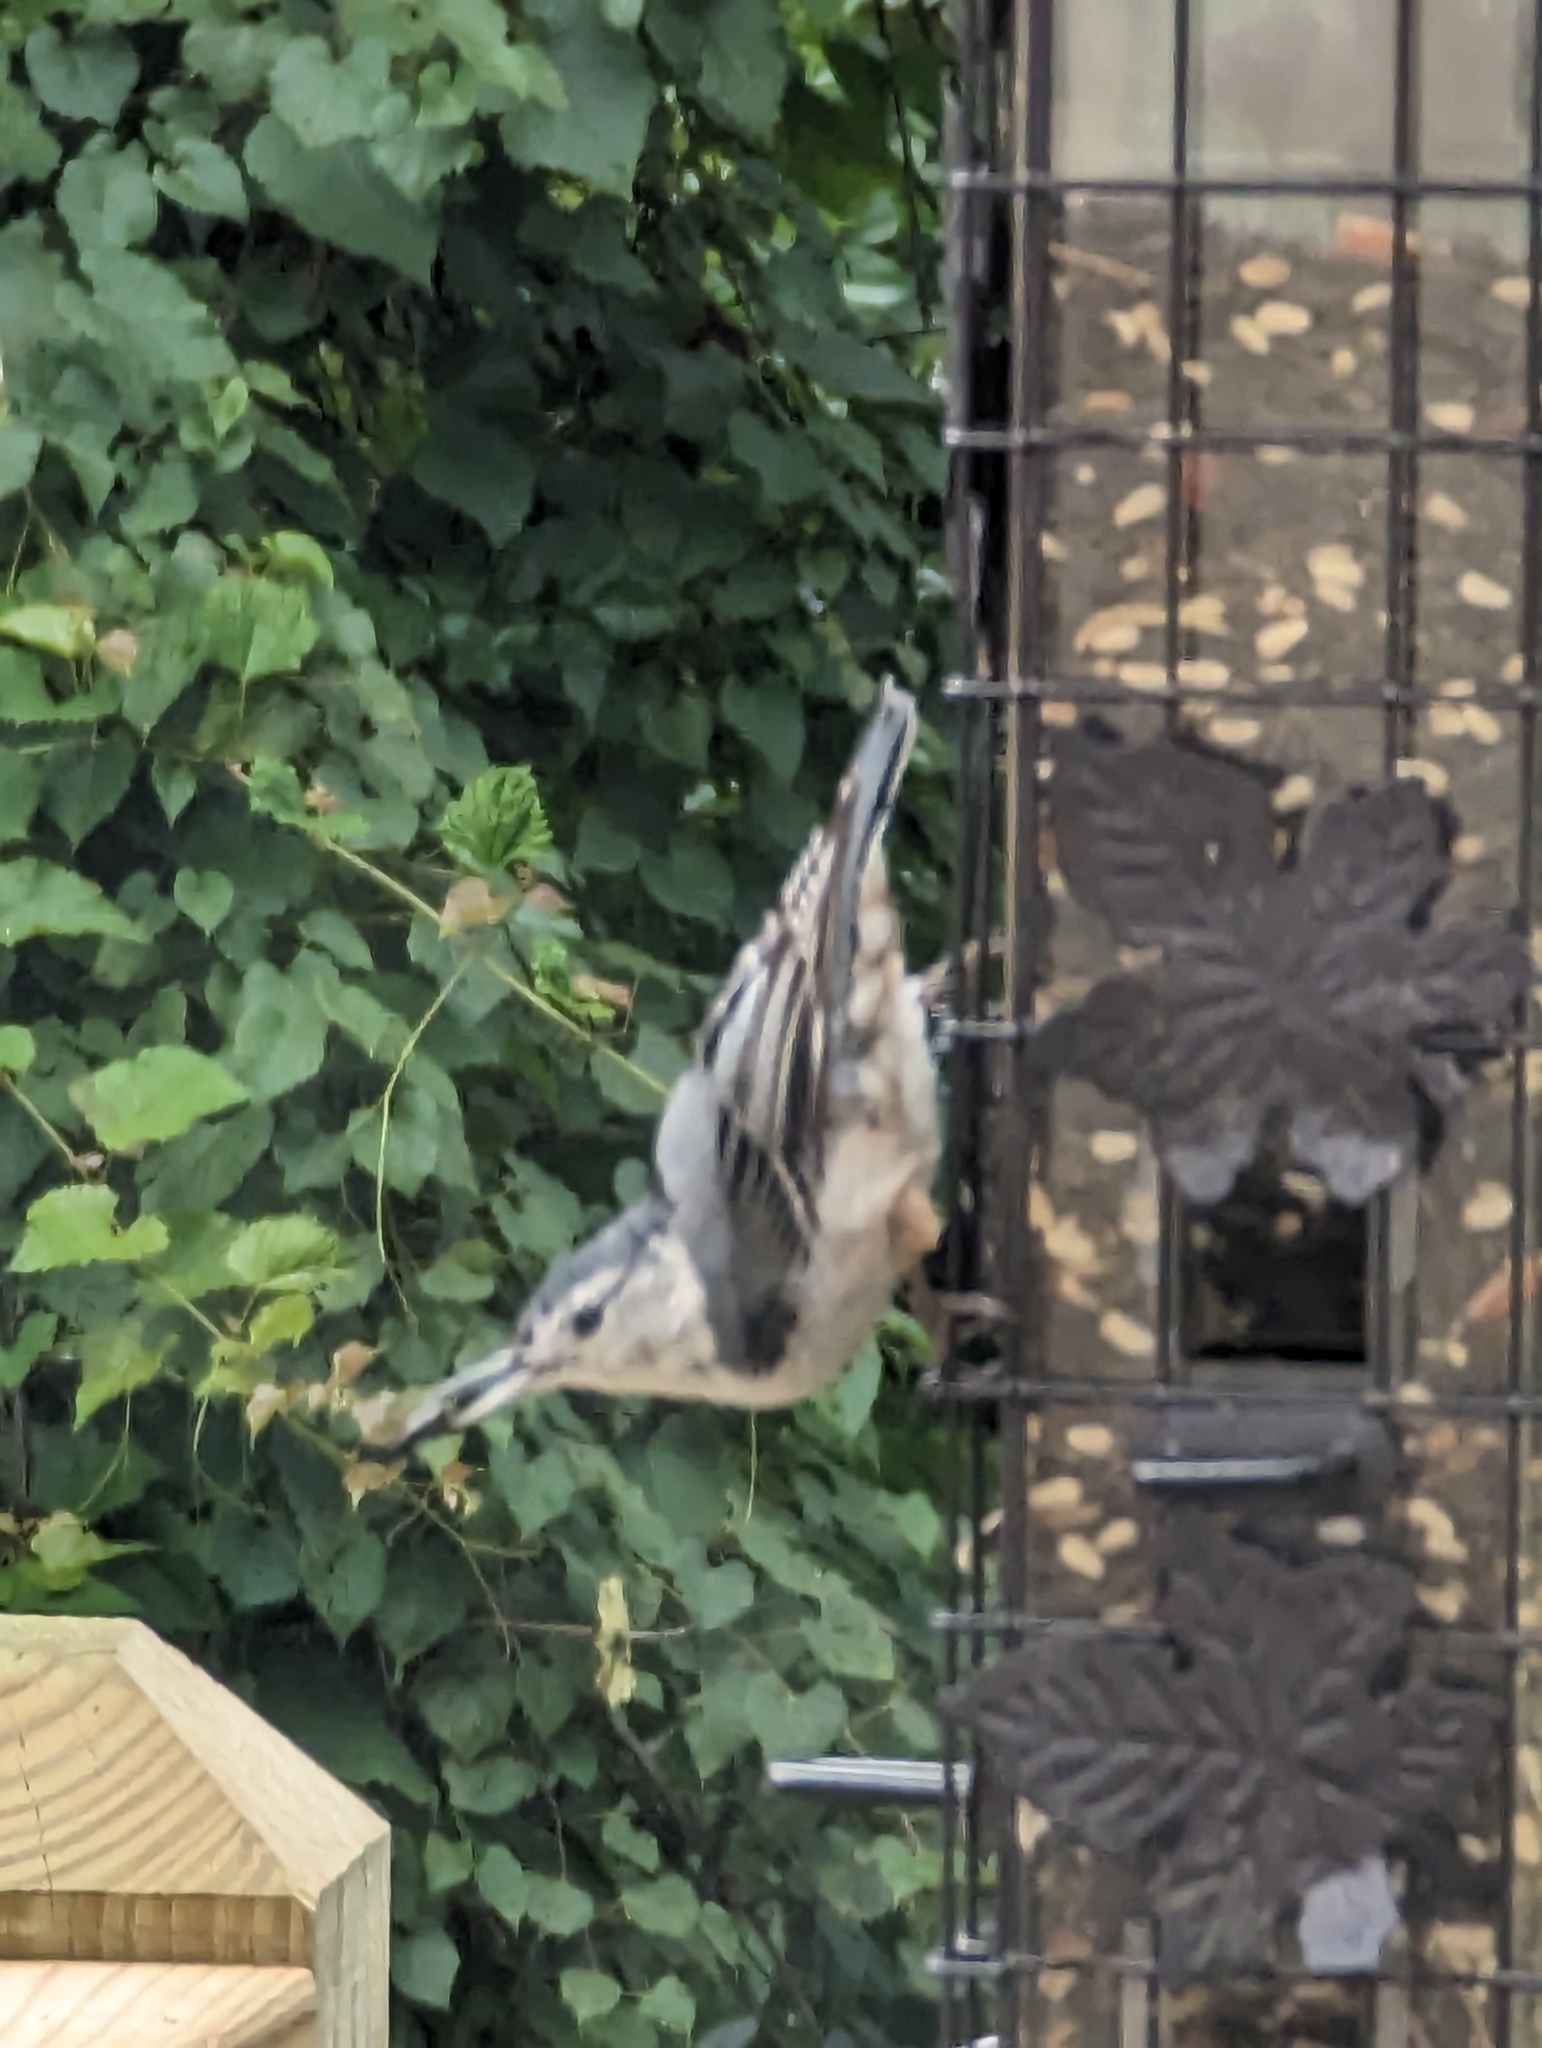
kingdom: Animalia
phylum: Chordata
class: Aves
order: Passeriformes
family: Sittidae
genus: Sitta
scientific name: Sitta carolinensis
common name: White-breasted nuthatch
